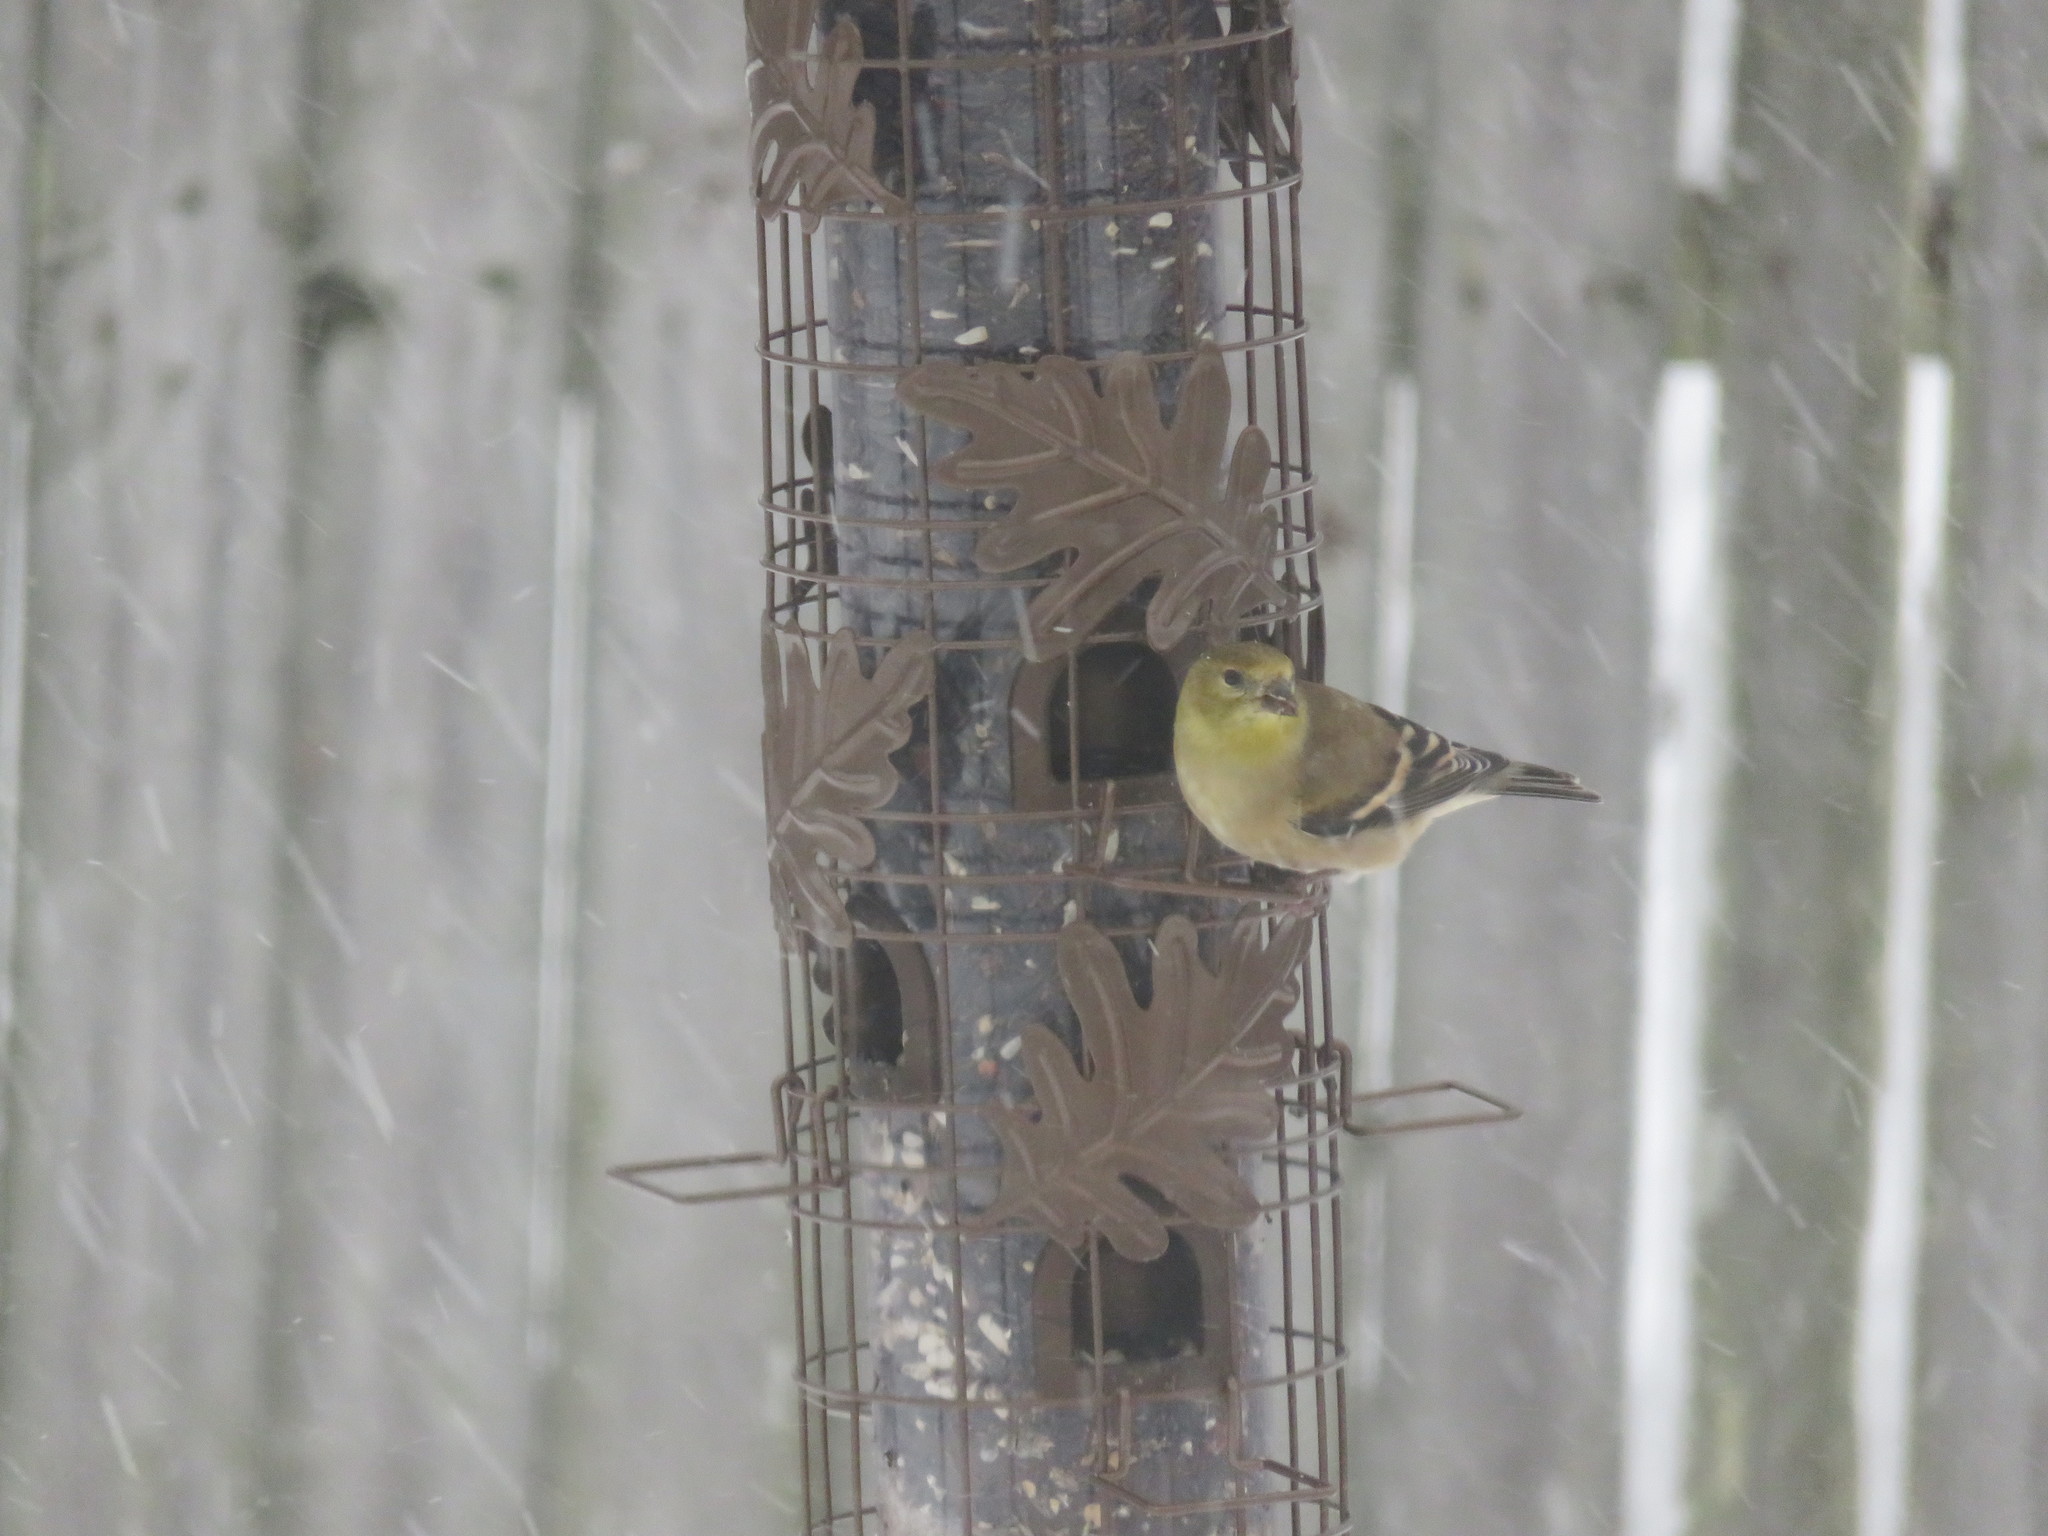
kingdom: Animalia
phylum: Chordata
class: Aves
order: Passeriformes
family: Fringillidae
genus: Spinus
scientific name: Spinus tristis
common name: American goldfinch
